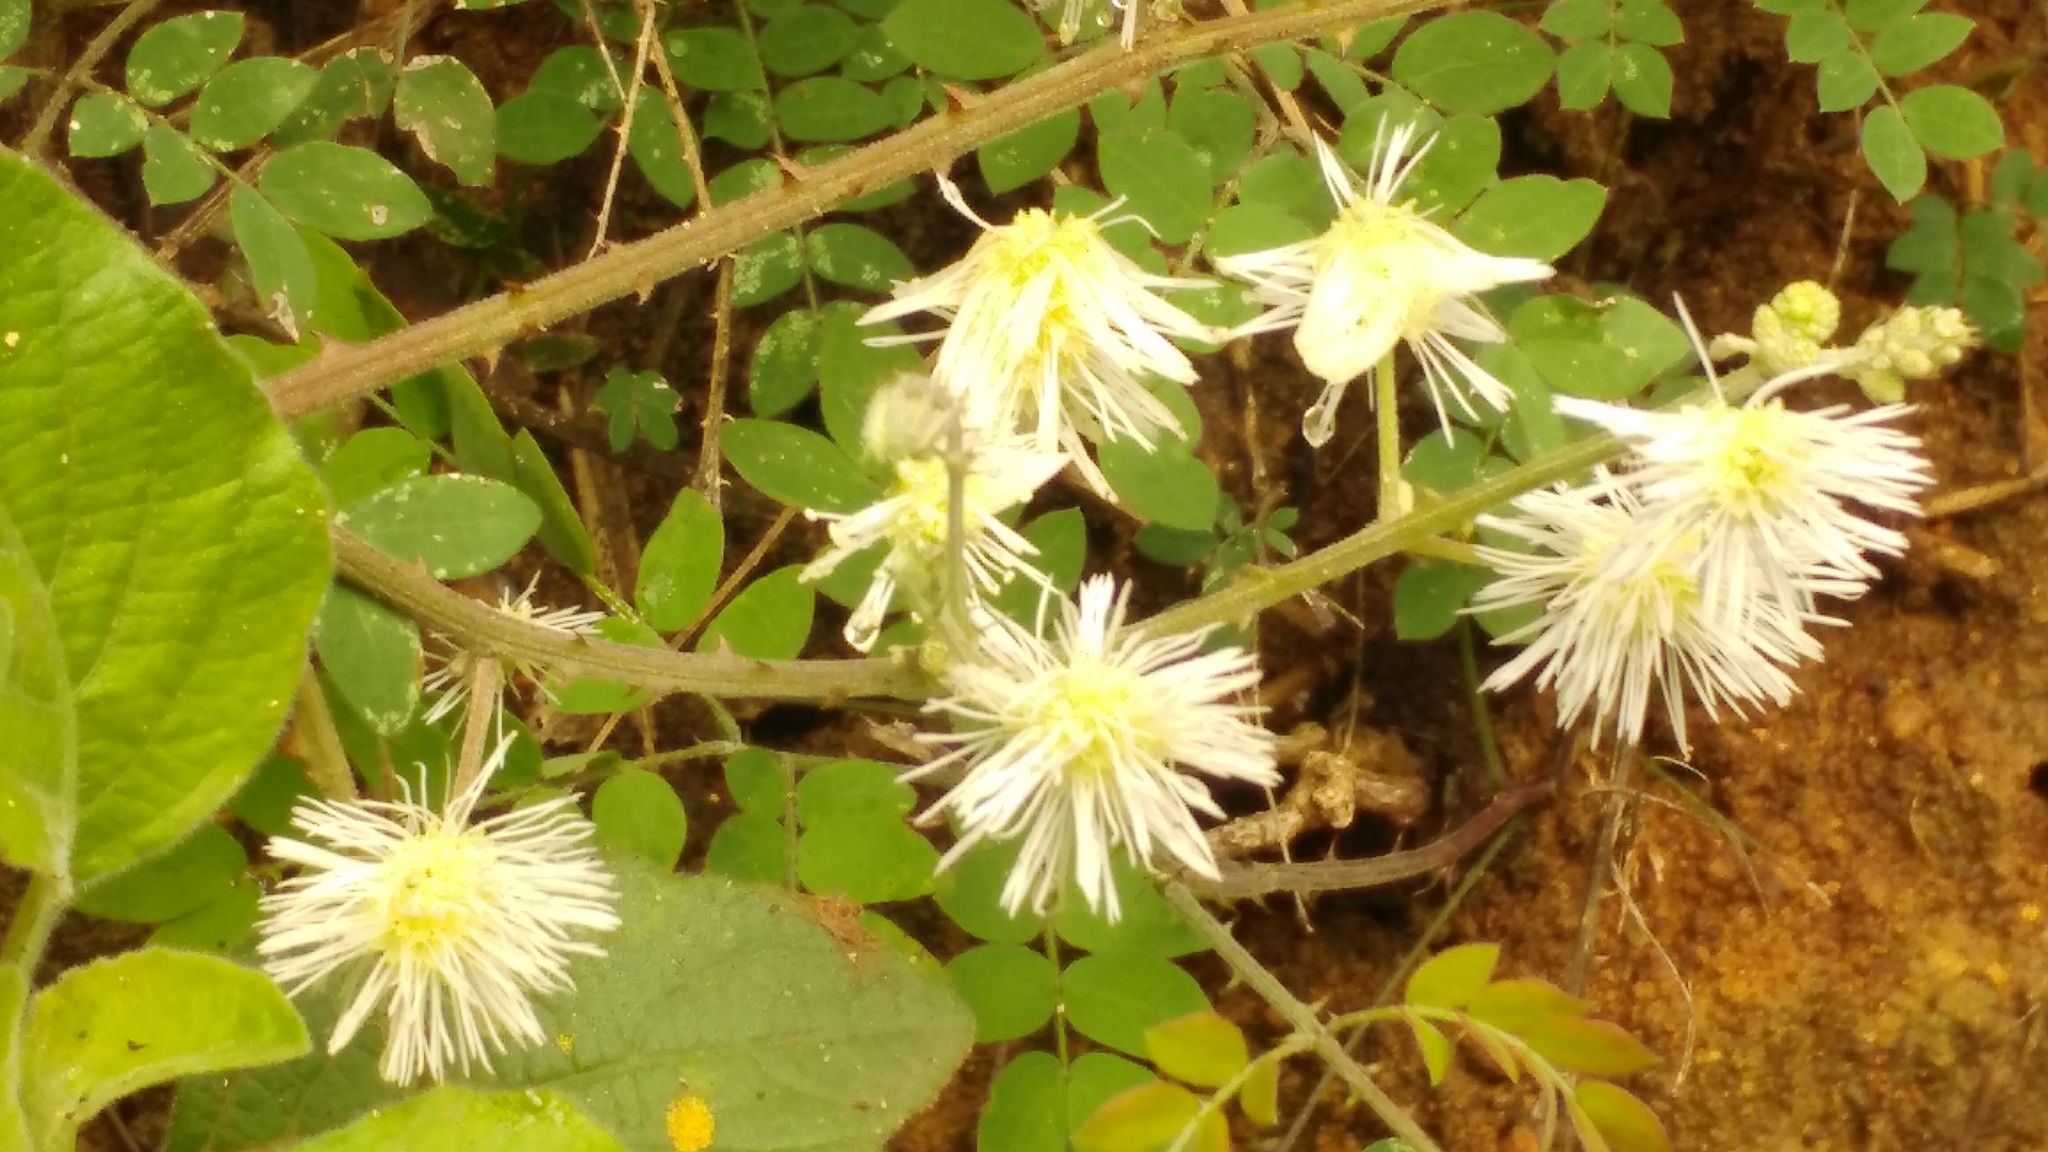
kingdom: Plantae
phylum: Tracheophyta
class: Magnoliopsida
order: Fabales
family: Fabaceae
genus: Mimosa
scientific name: Mimosa malacophylla
